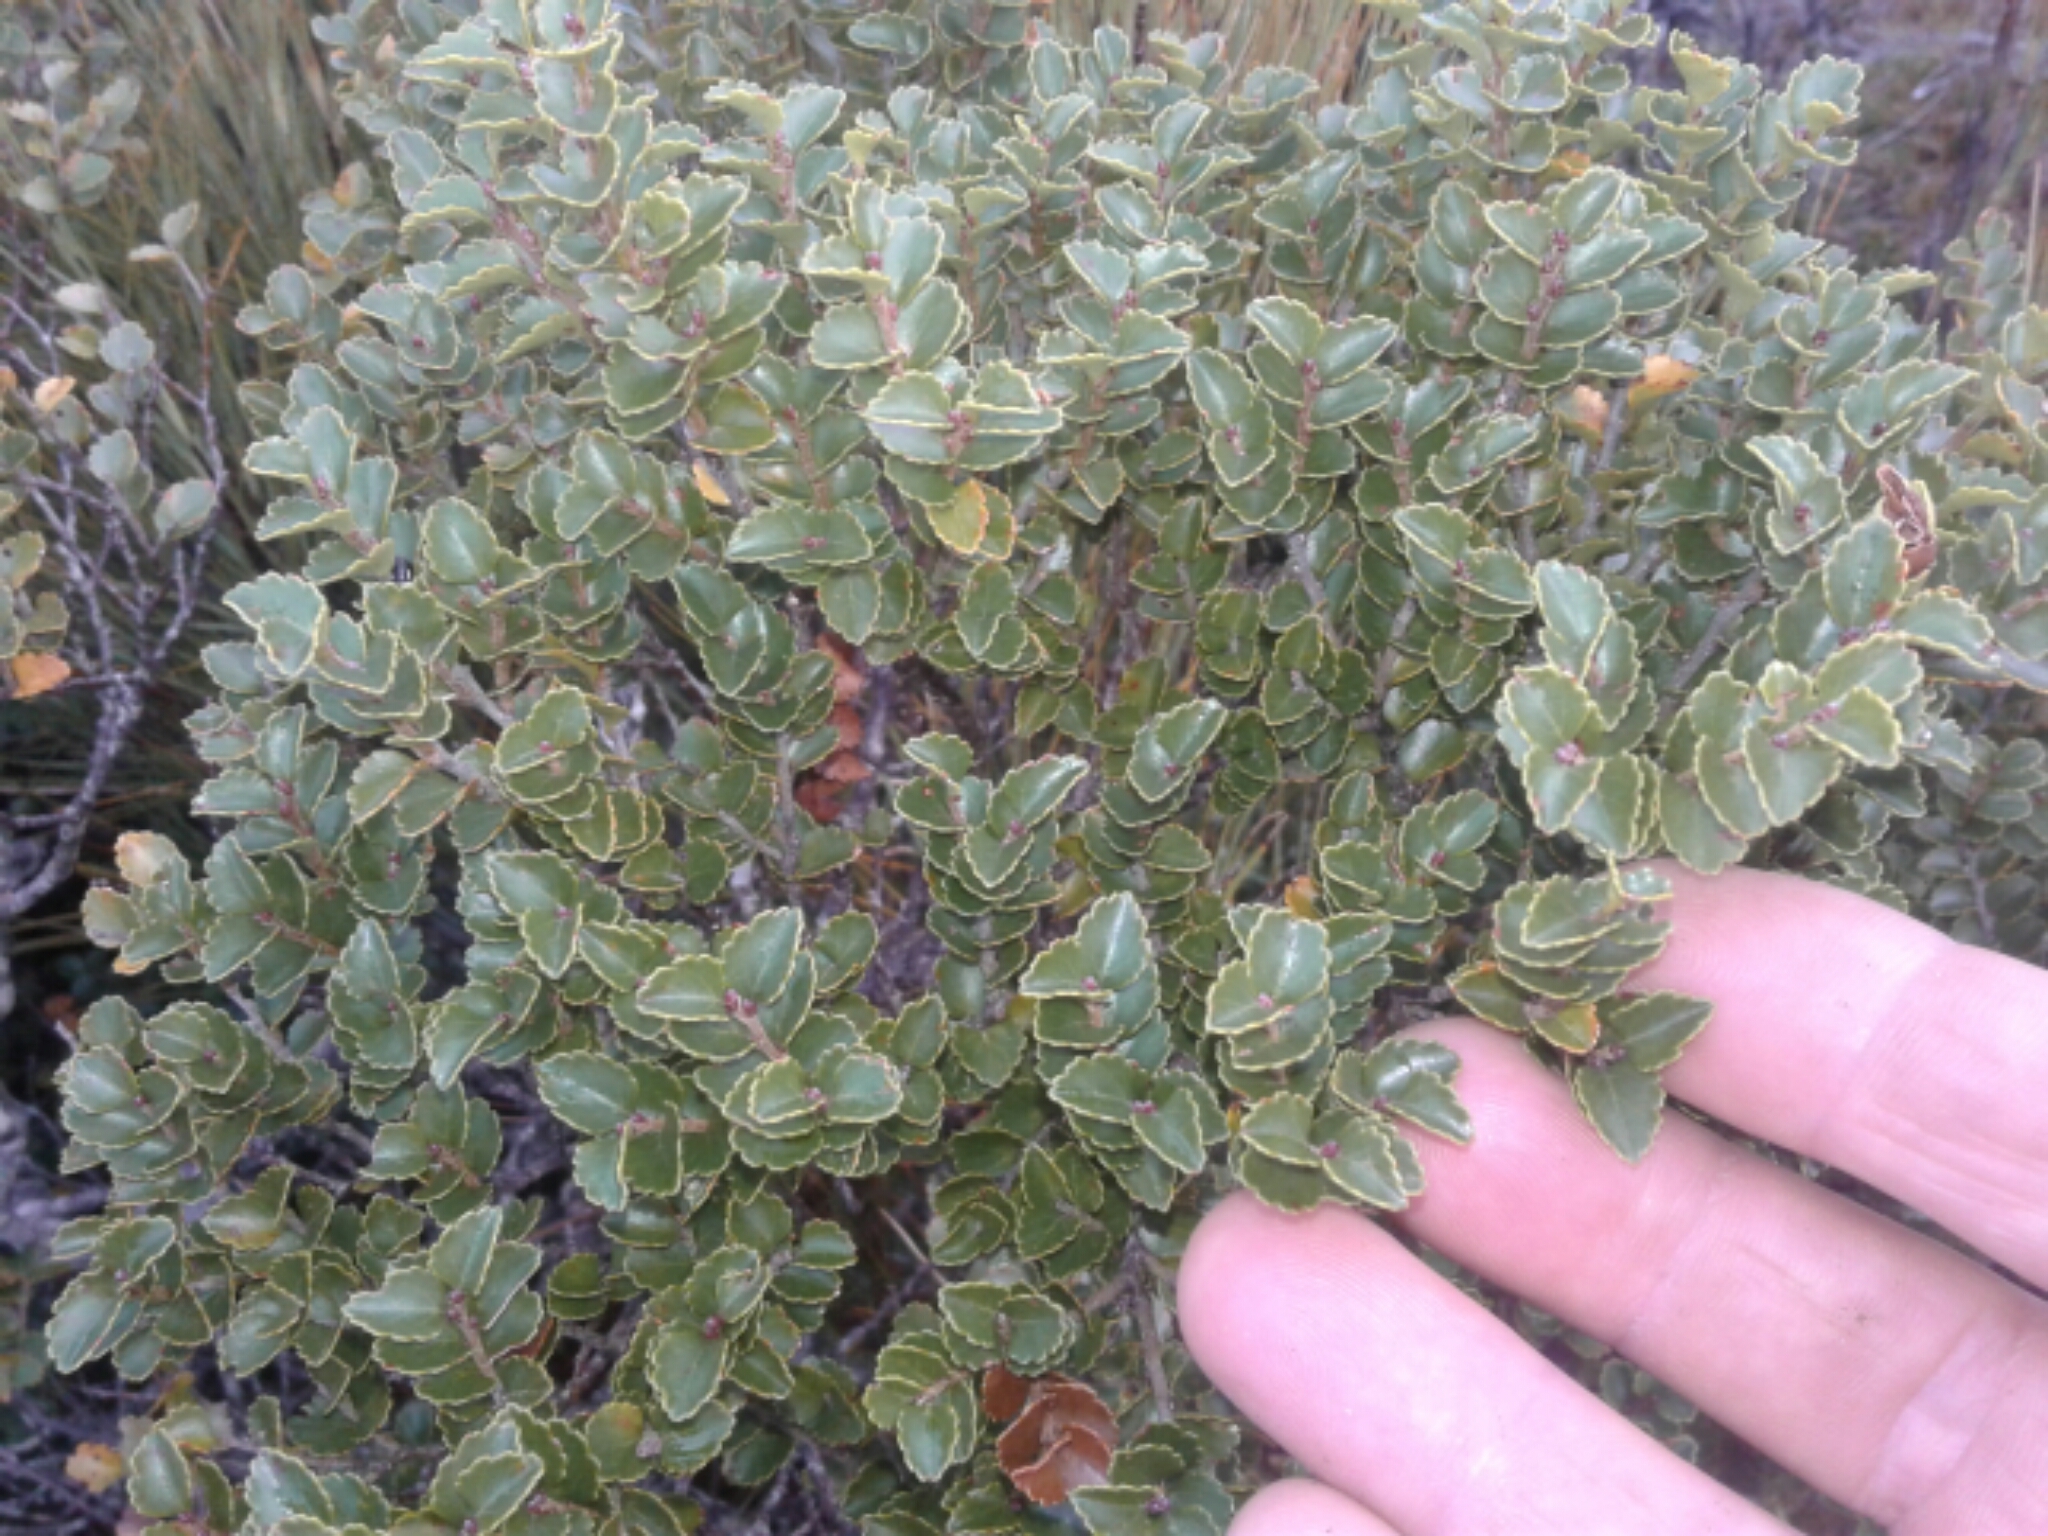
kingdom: Plantae
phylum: Tracheophyta
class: Magnoliopsida
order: Fagales
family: Nothofagaceae
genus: Nothofagus
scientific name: Nothofagus menziesii
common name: Silver beech
